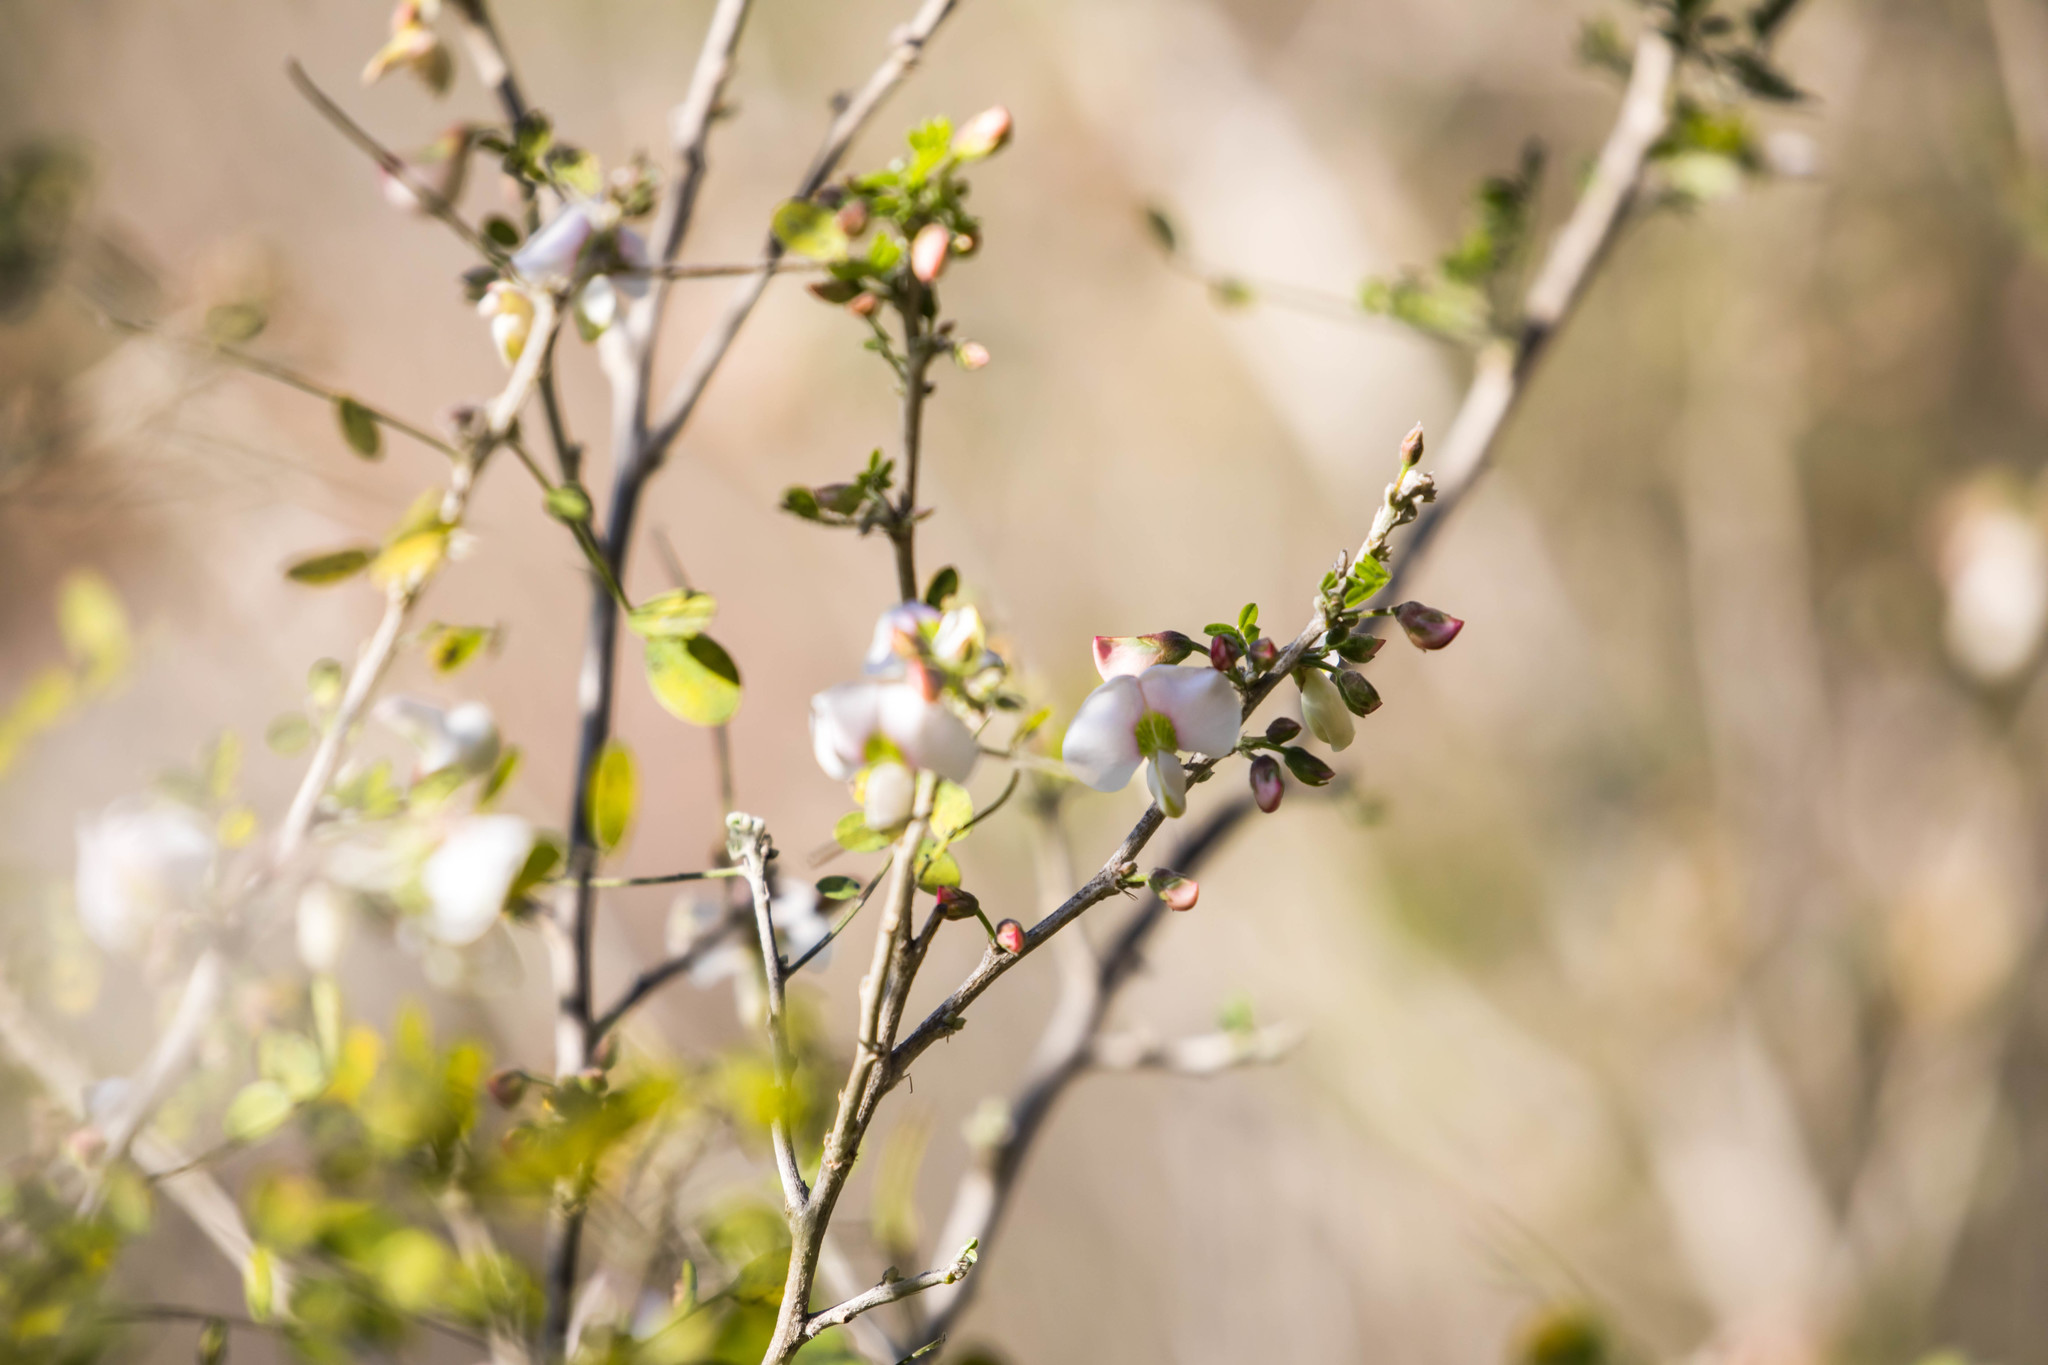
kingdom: Plantae
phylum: Tracheophyta
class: Magnoliopsida
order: Fabales
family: Fabaceae
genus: Coursetia
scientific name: Coursetia axillaris
